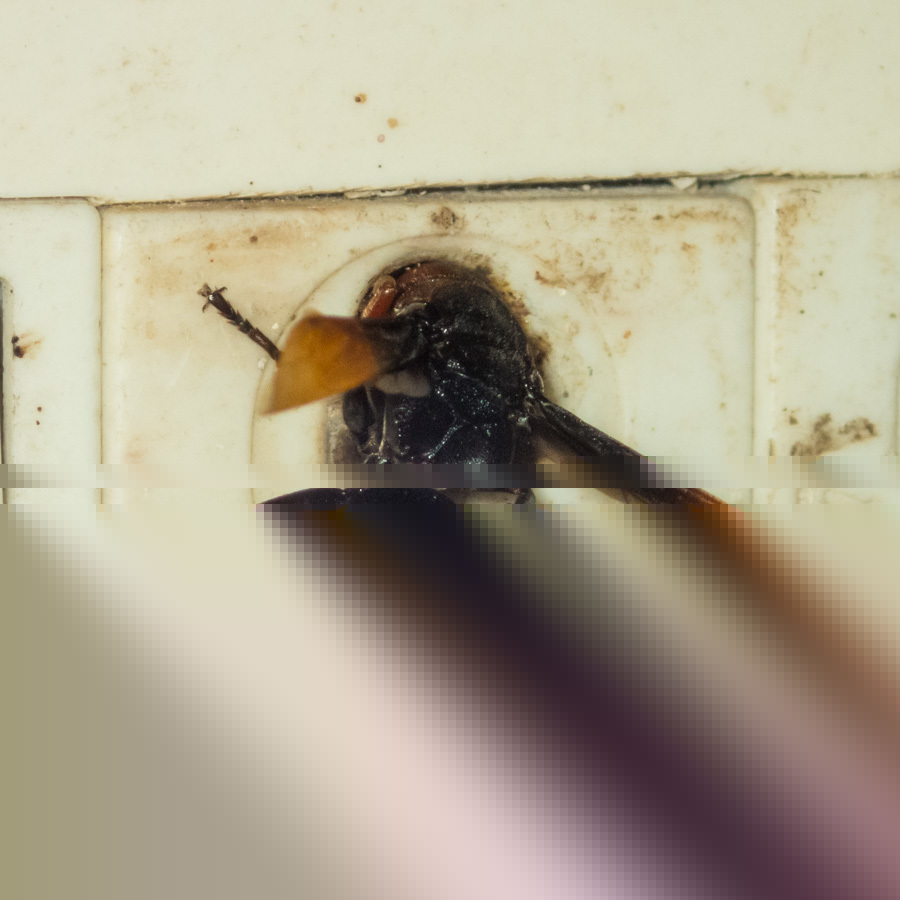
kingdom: Animalia
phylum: Arthropoda
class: Insecta
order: Hymenoptera
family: Eumenidae
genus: Rhynchium
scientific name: Rhynchium haemorrhoidale
